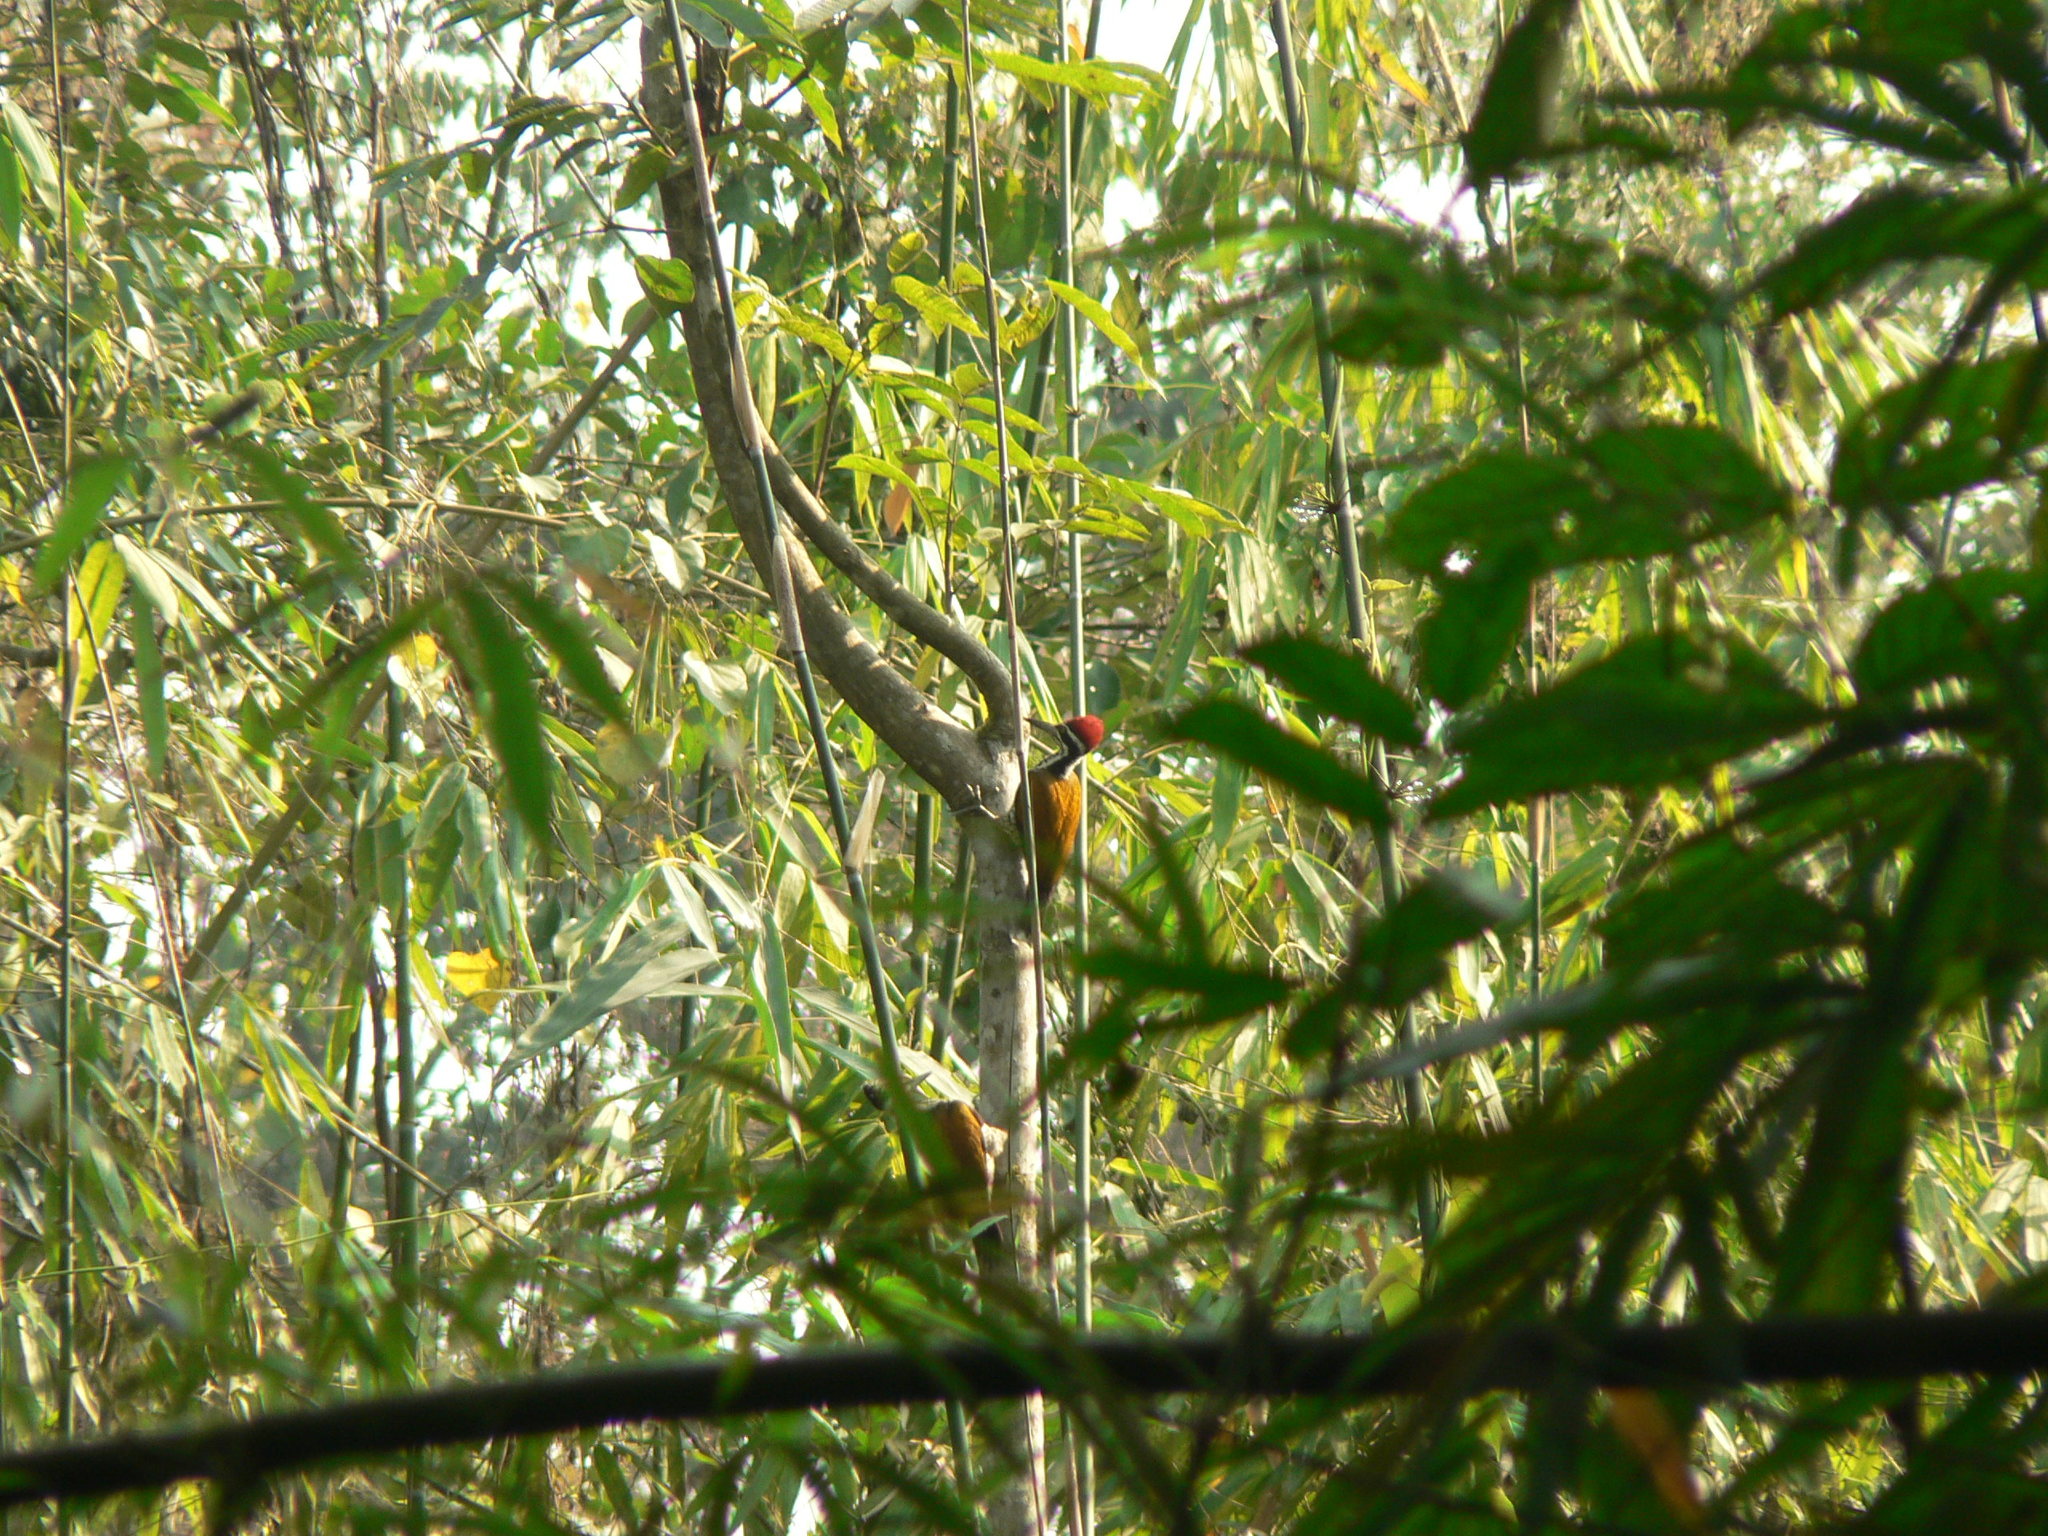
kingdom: Animalia
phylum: Chordata
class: Aves
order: Piciformes
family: Picidae
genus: Chrysocolaptes
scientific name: Chrysocolaptes guttacristatus
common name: Greater flameback
